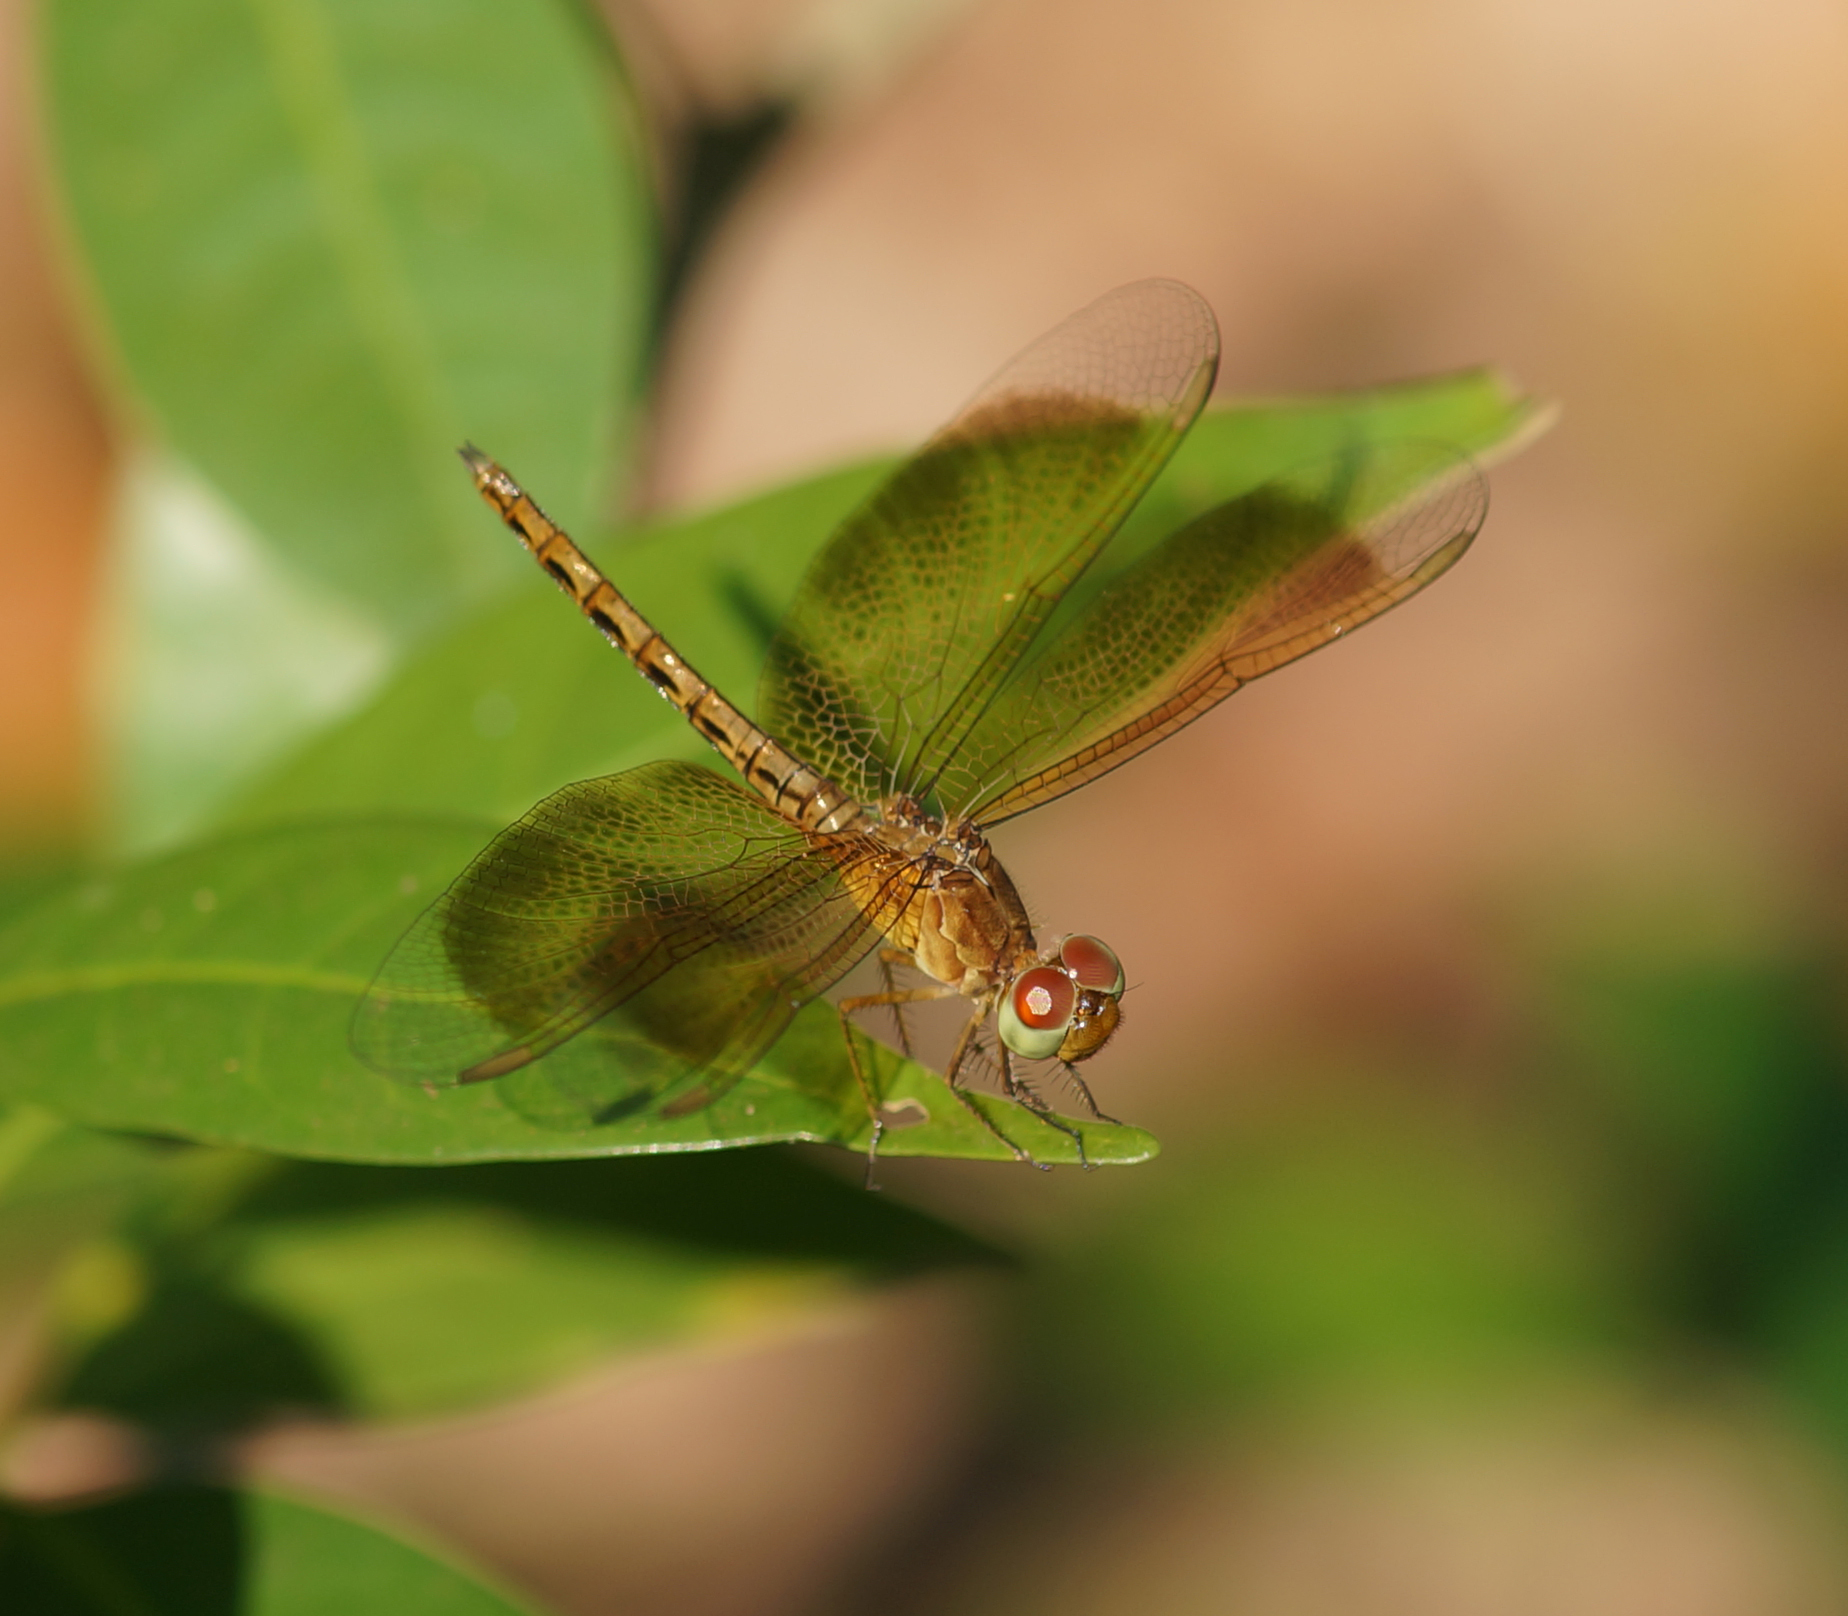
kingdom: Animalia
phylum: Arthropoda
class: Insecta
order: Odonata
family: Libellulidae
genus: Neurothemis
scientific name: Neurothemis fluctuans
